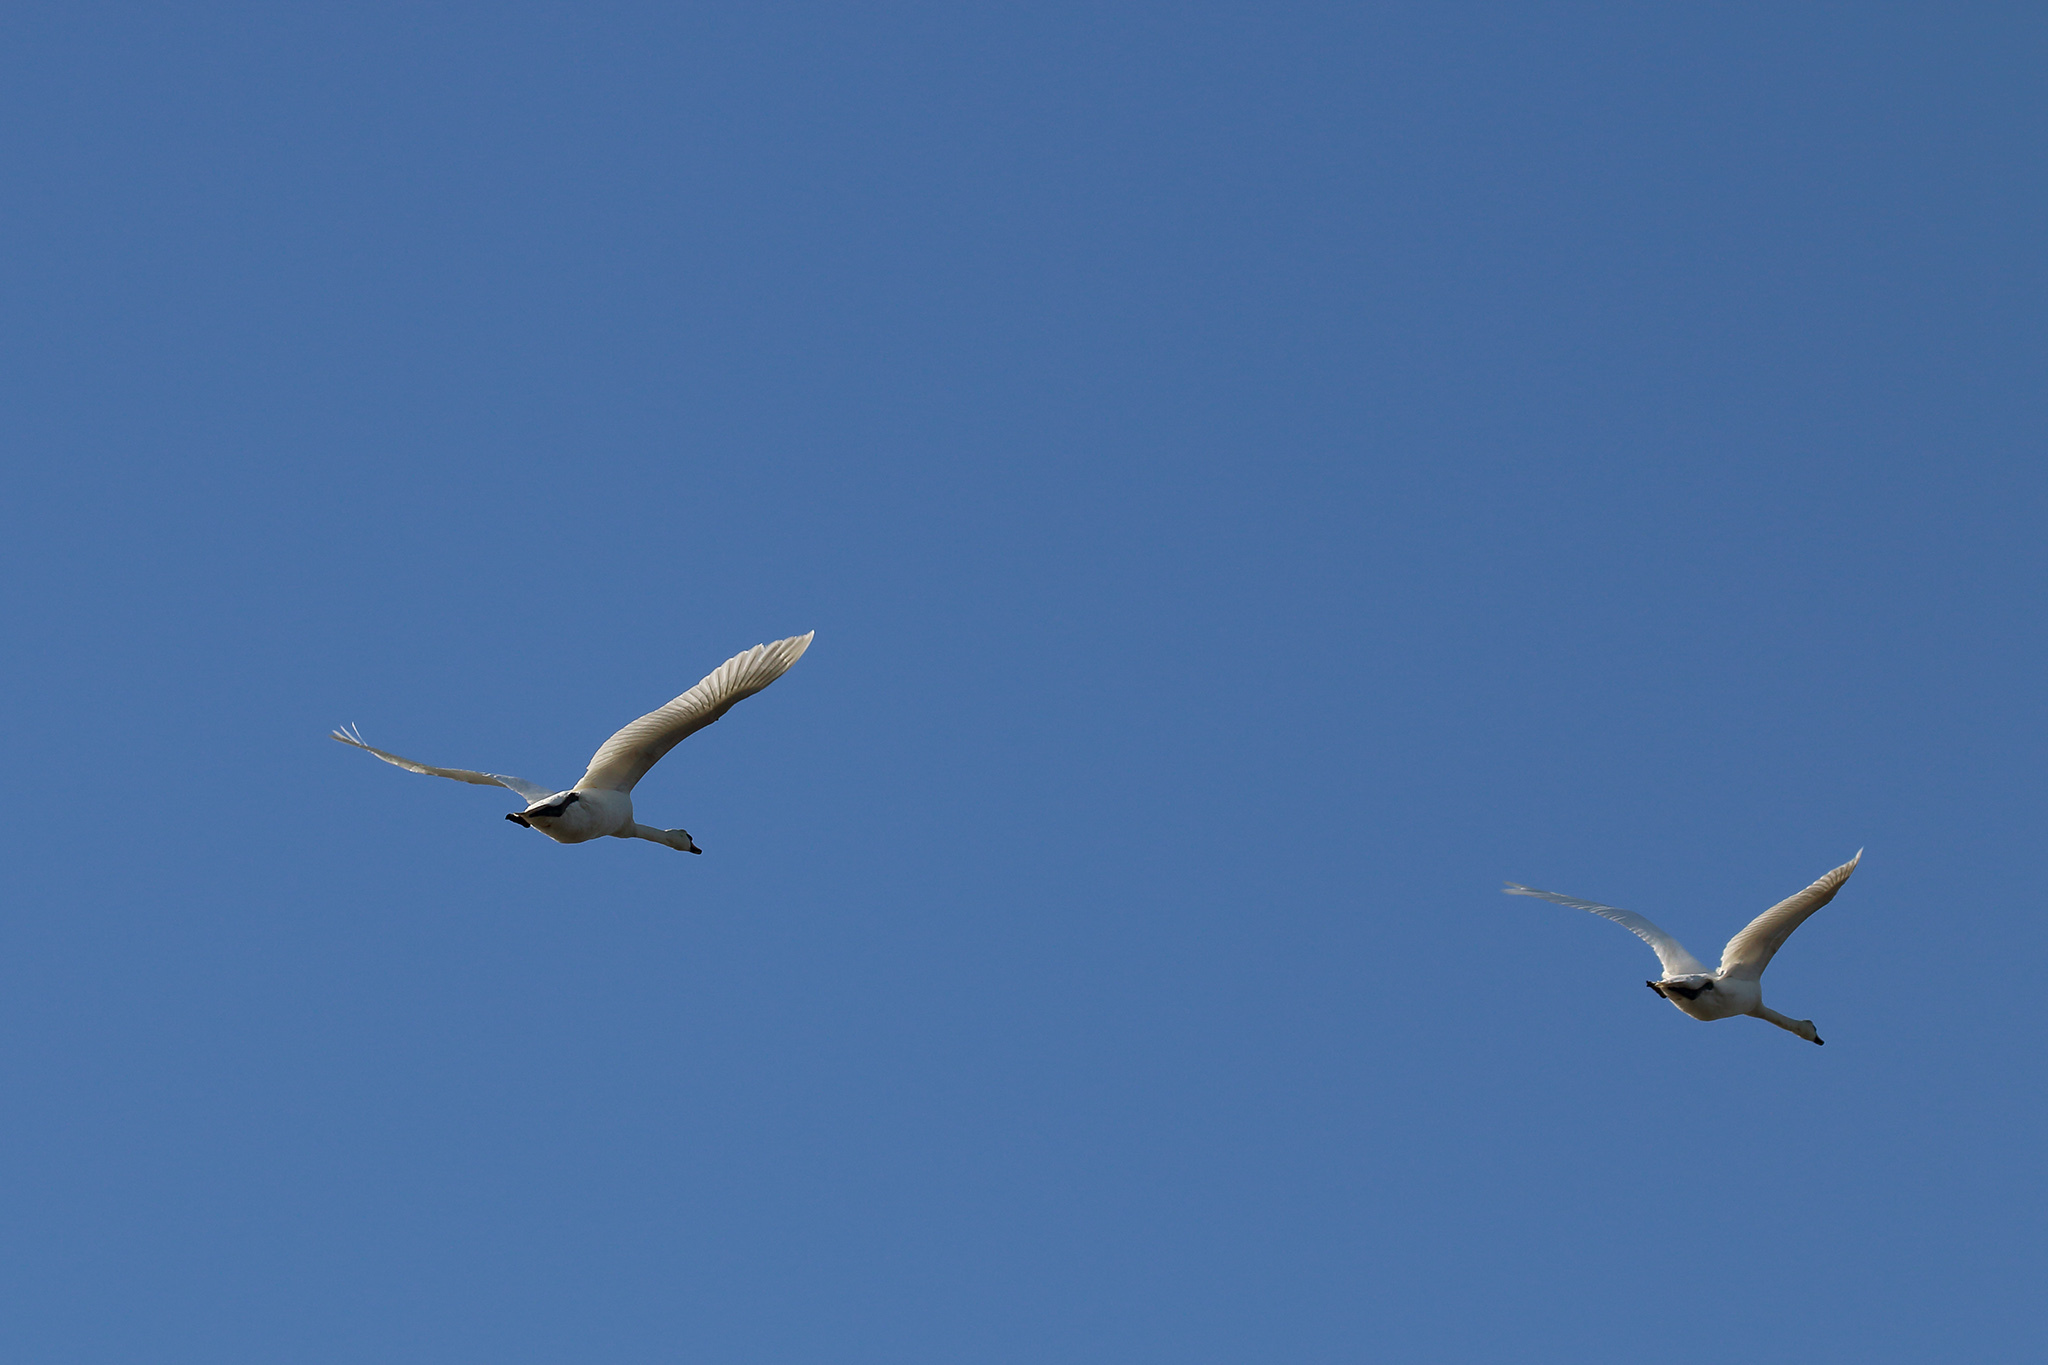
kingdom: Animalia
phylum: Chordata
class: Aves
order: Anseriformes
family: Anatidae
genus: Cygnus
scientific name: Cygnus olor
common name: Mute swan
